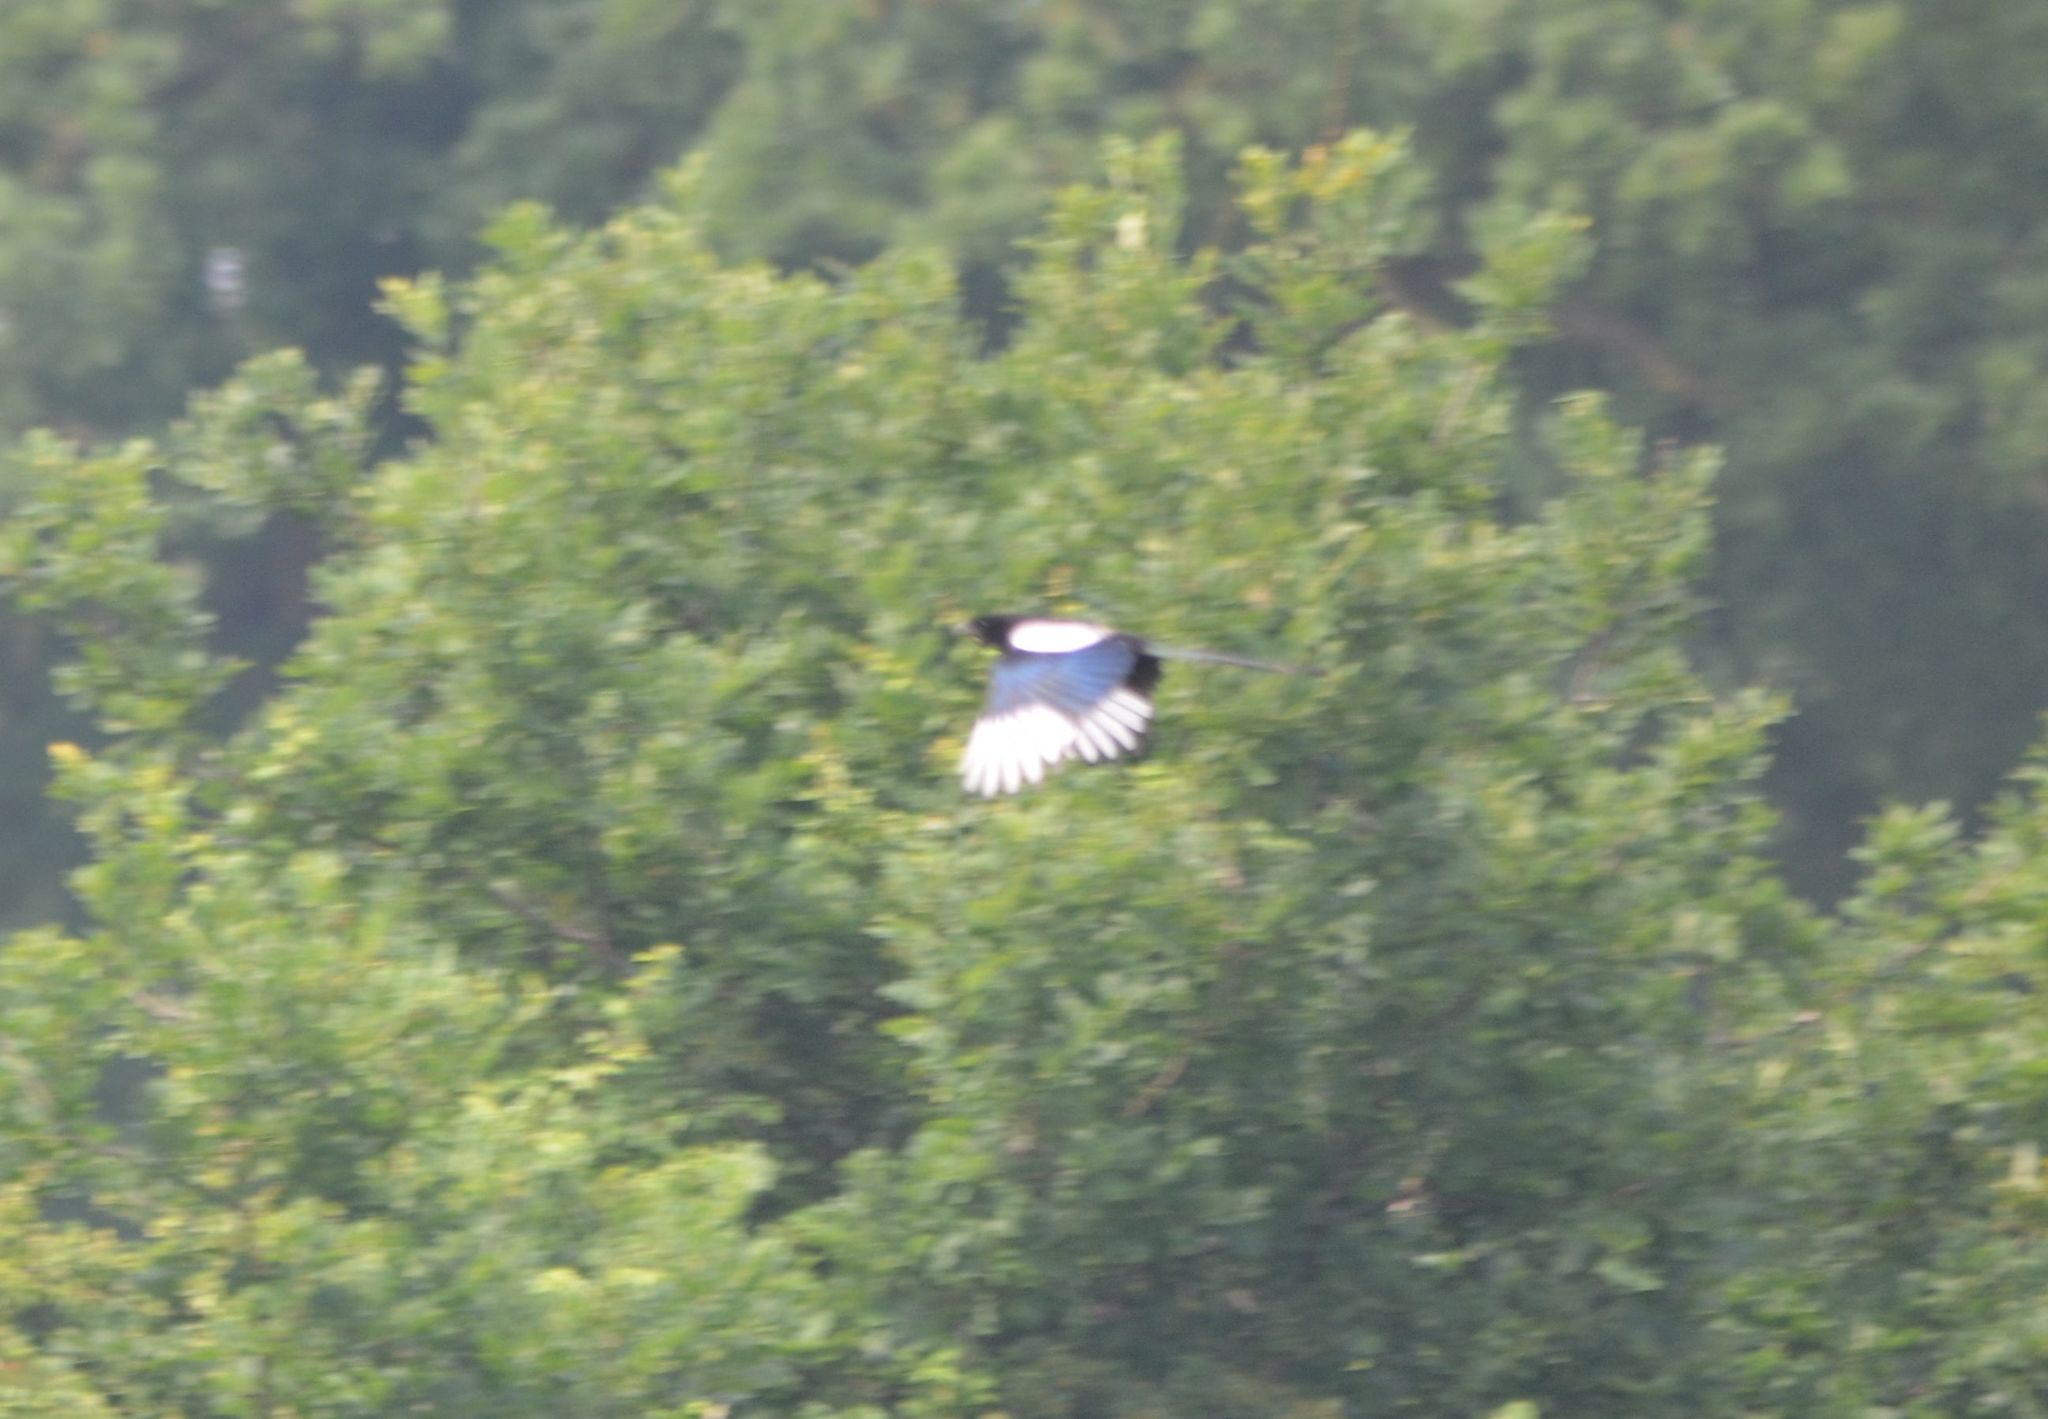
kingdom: Animalia
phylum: Chordata
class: Aves
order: Passeriformes
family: Corvidae
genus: Pica
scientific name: Pica pica
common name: Eurasian magpie
